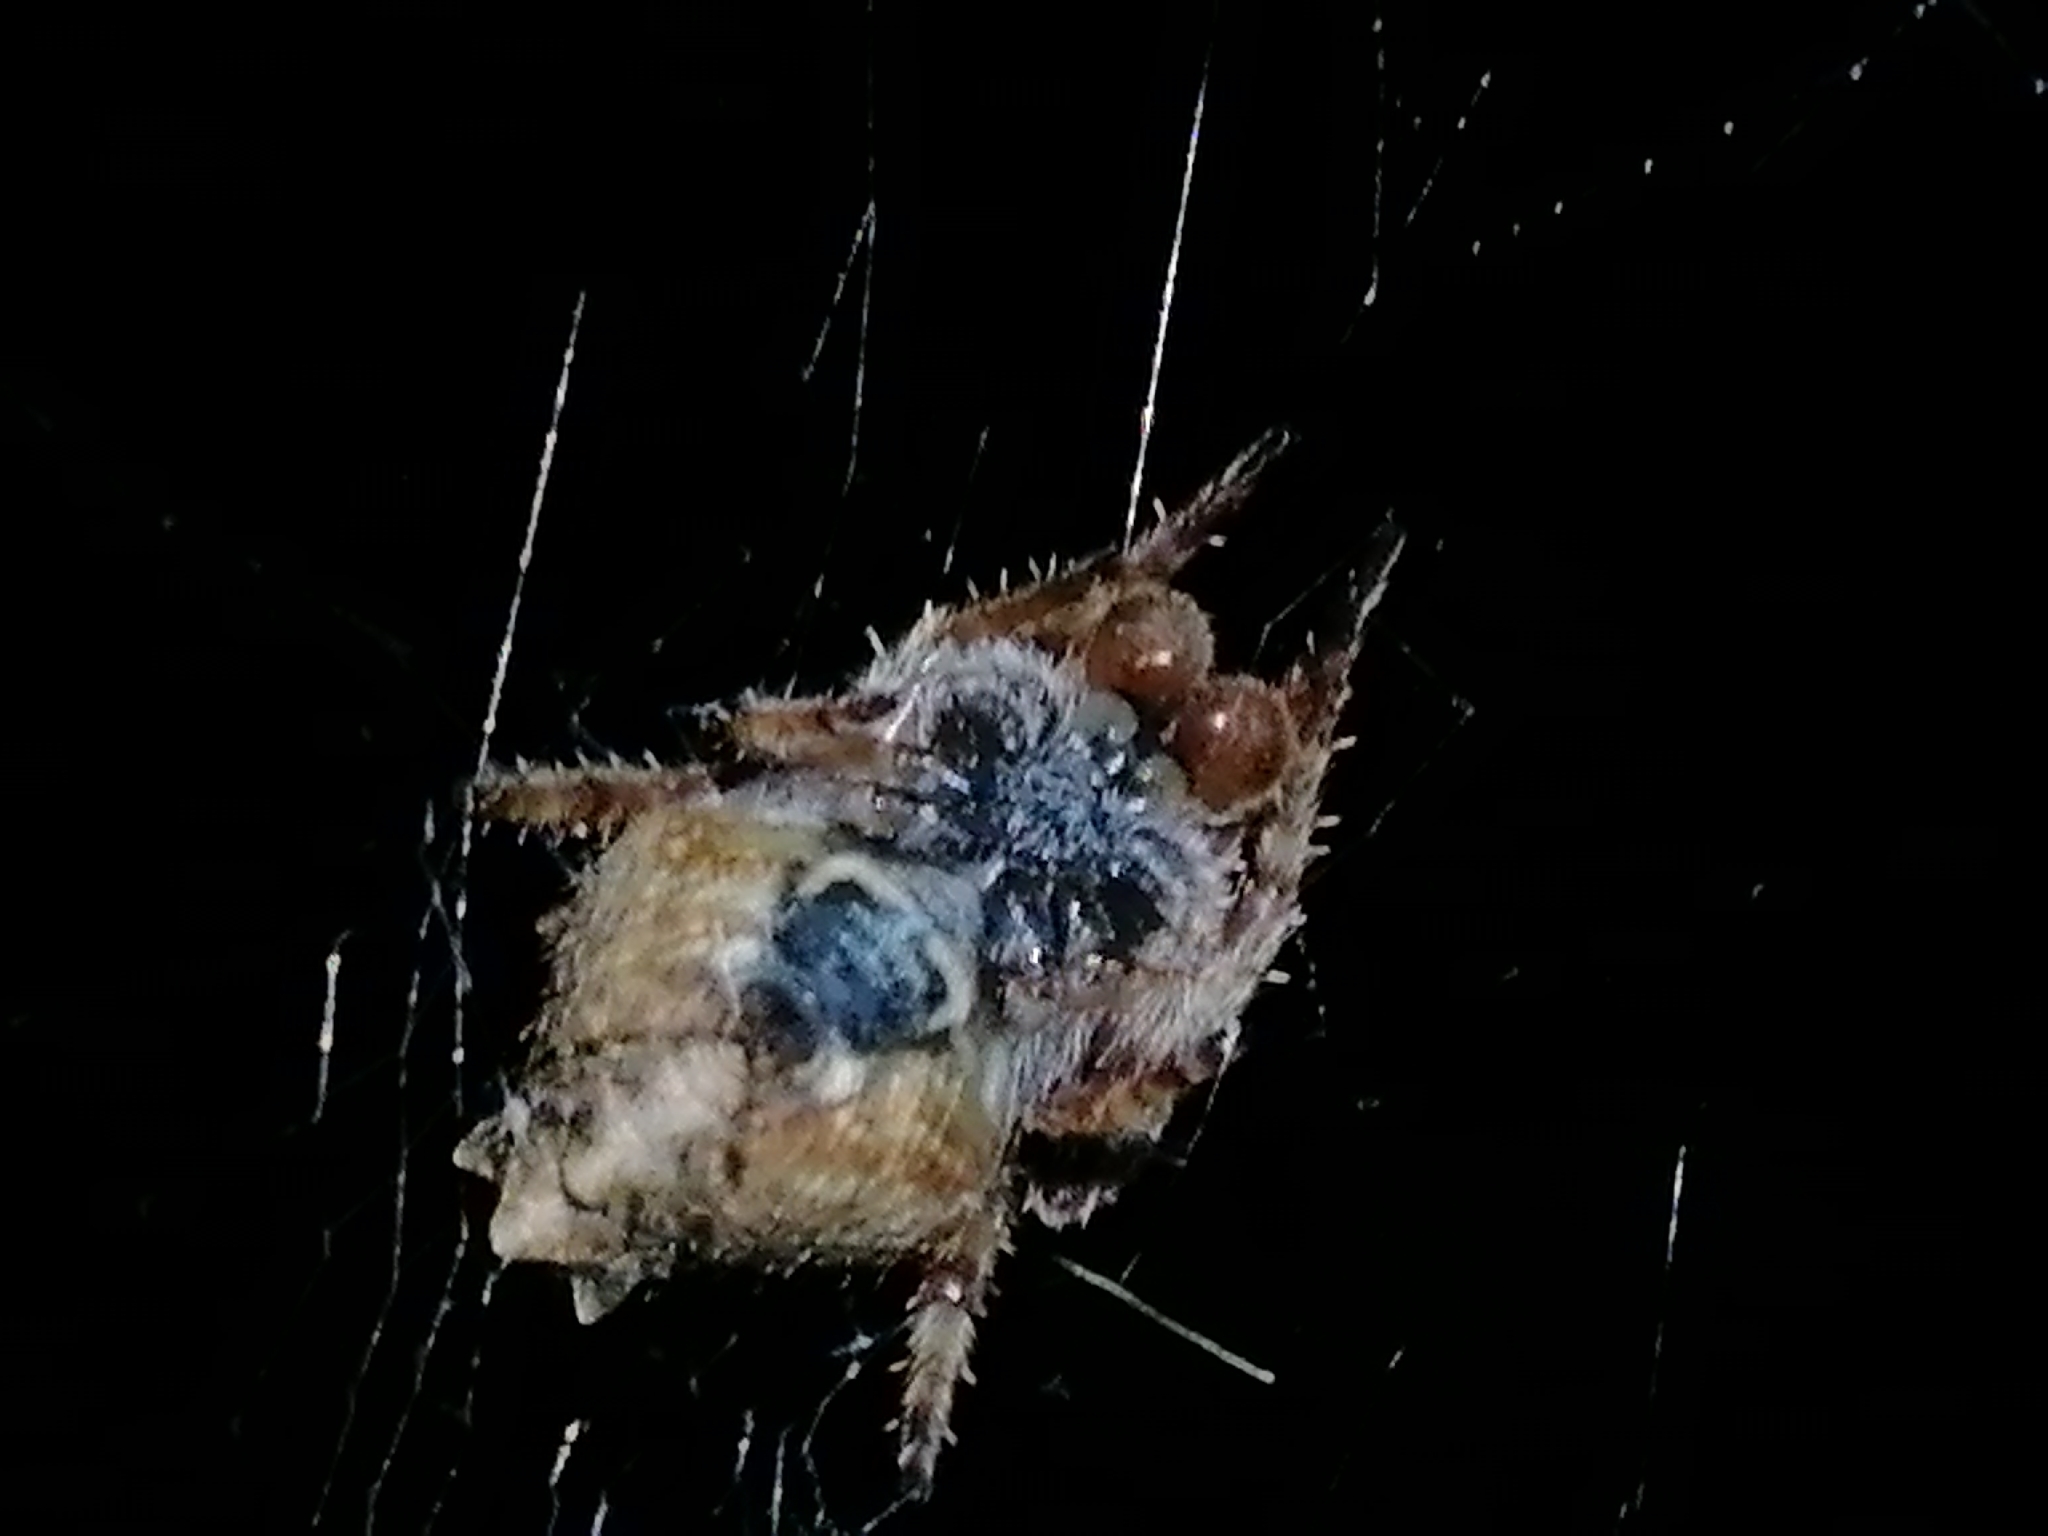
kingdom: Animalia
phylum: Arthropoda
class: Arachnida
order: Araneae
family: Araneidae
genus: Eriophora
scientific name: Eriophora pustulosa
